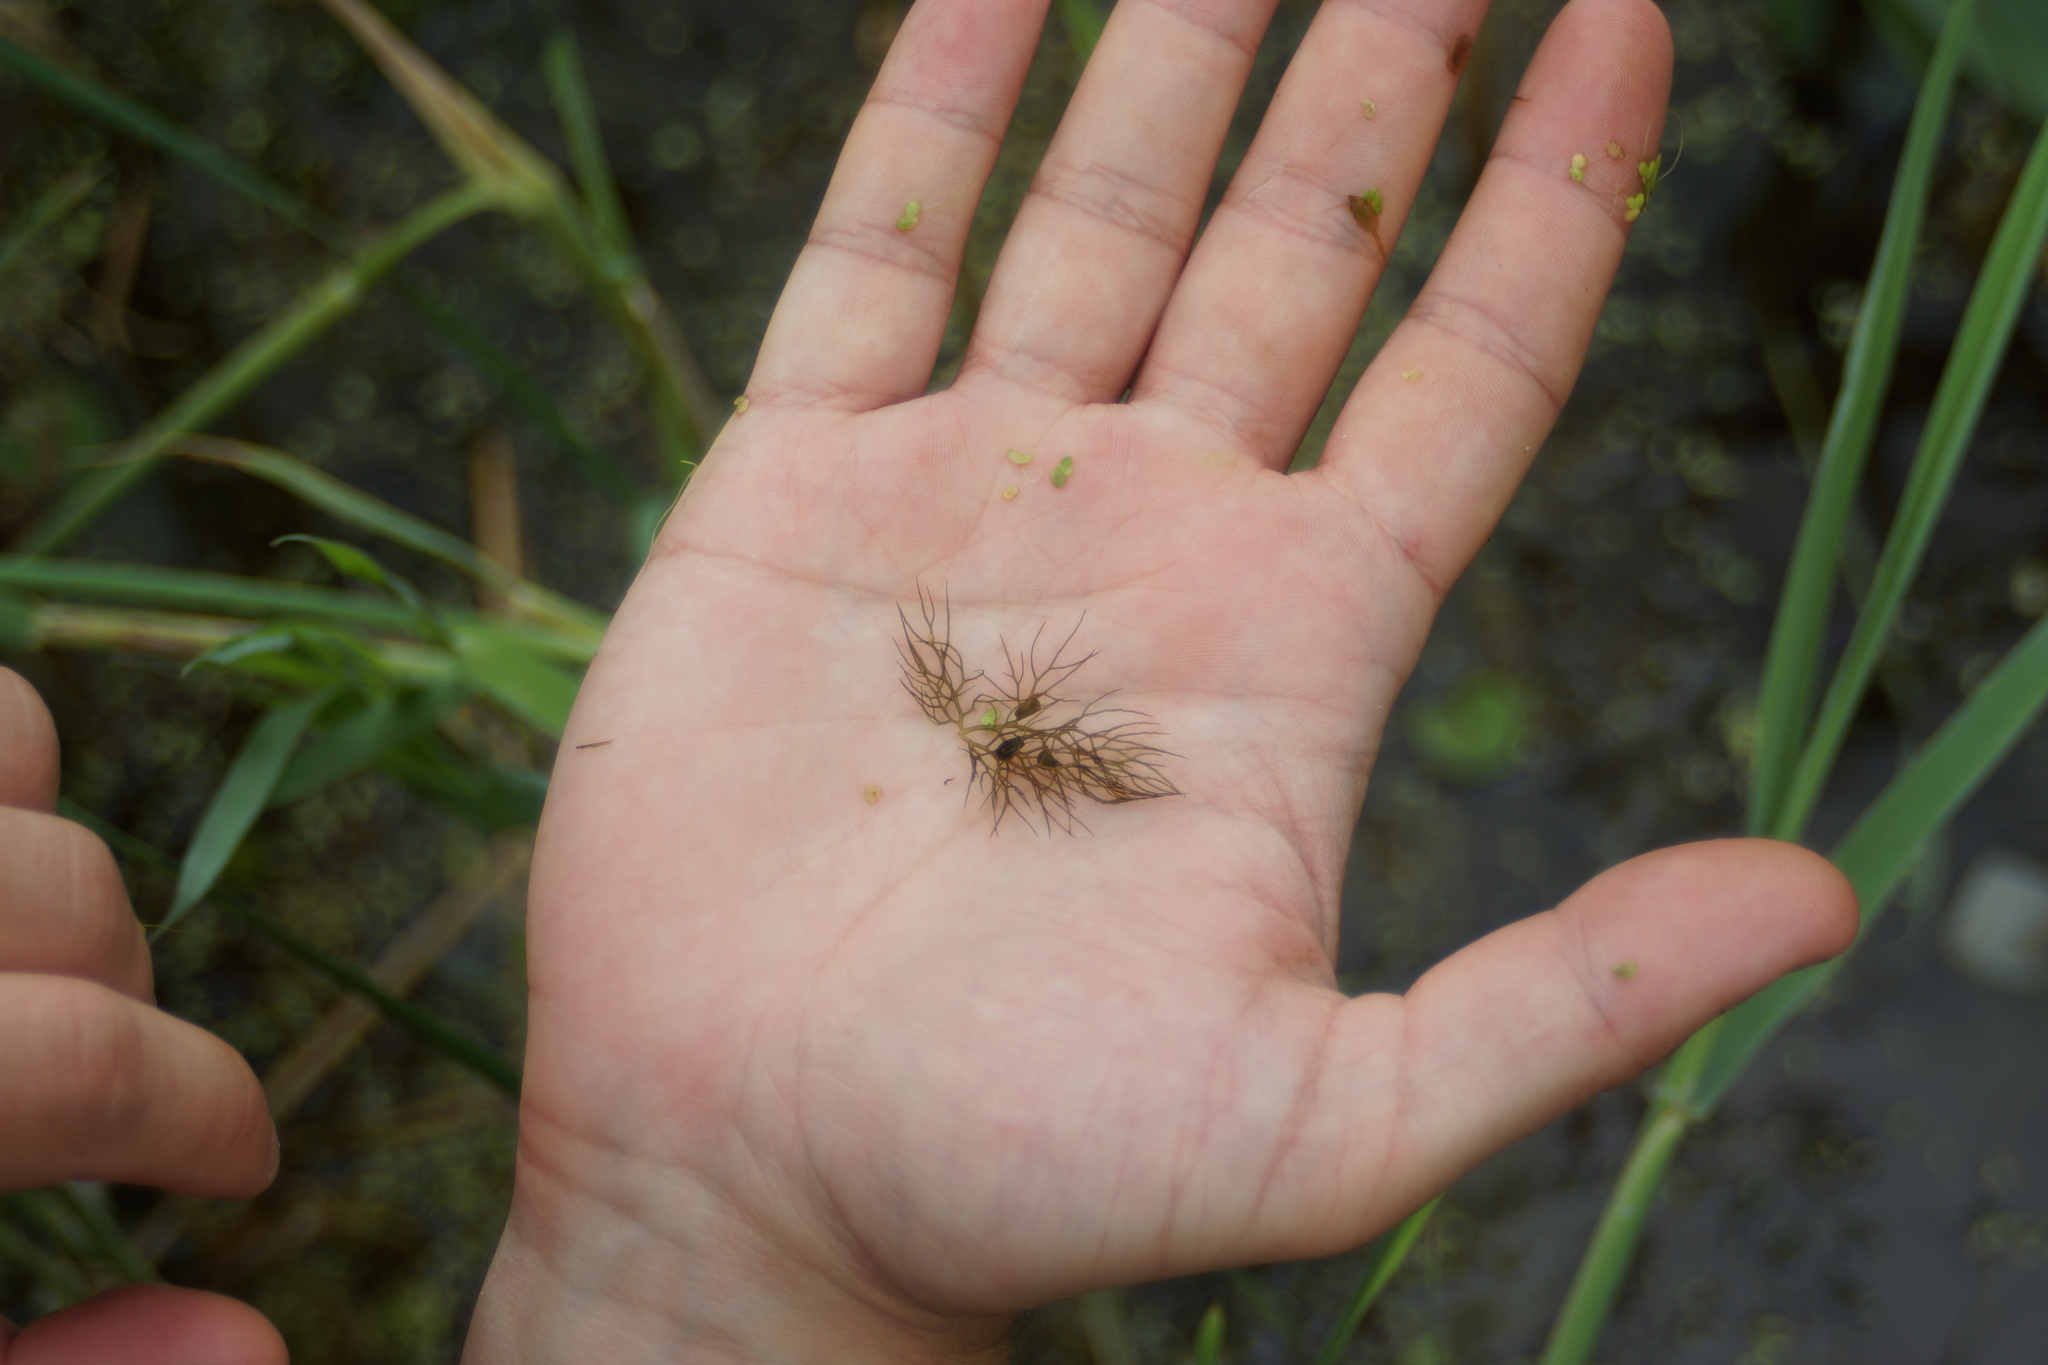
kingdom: Plantae
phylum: Tracheophyta
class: Magnoliopsida
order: Lamiales
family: Lentibulariaceae
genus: Utricularia
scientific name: Utricularia vulgaris
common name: Greater bladderwort
